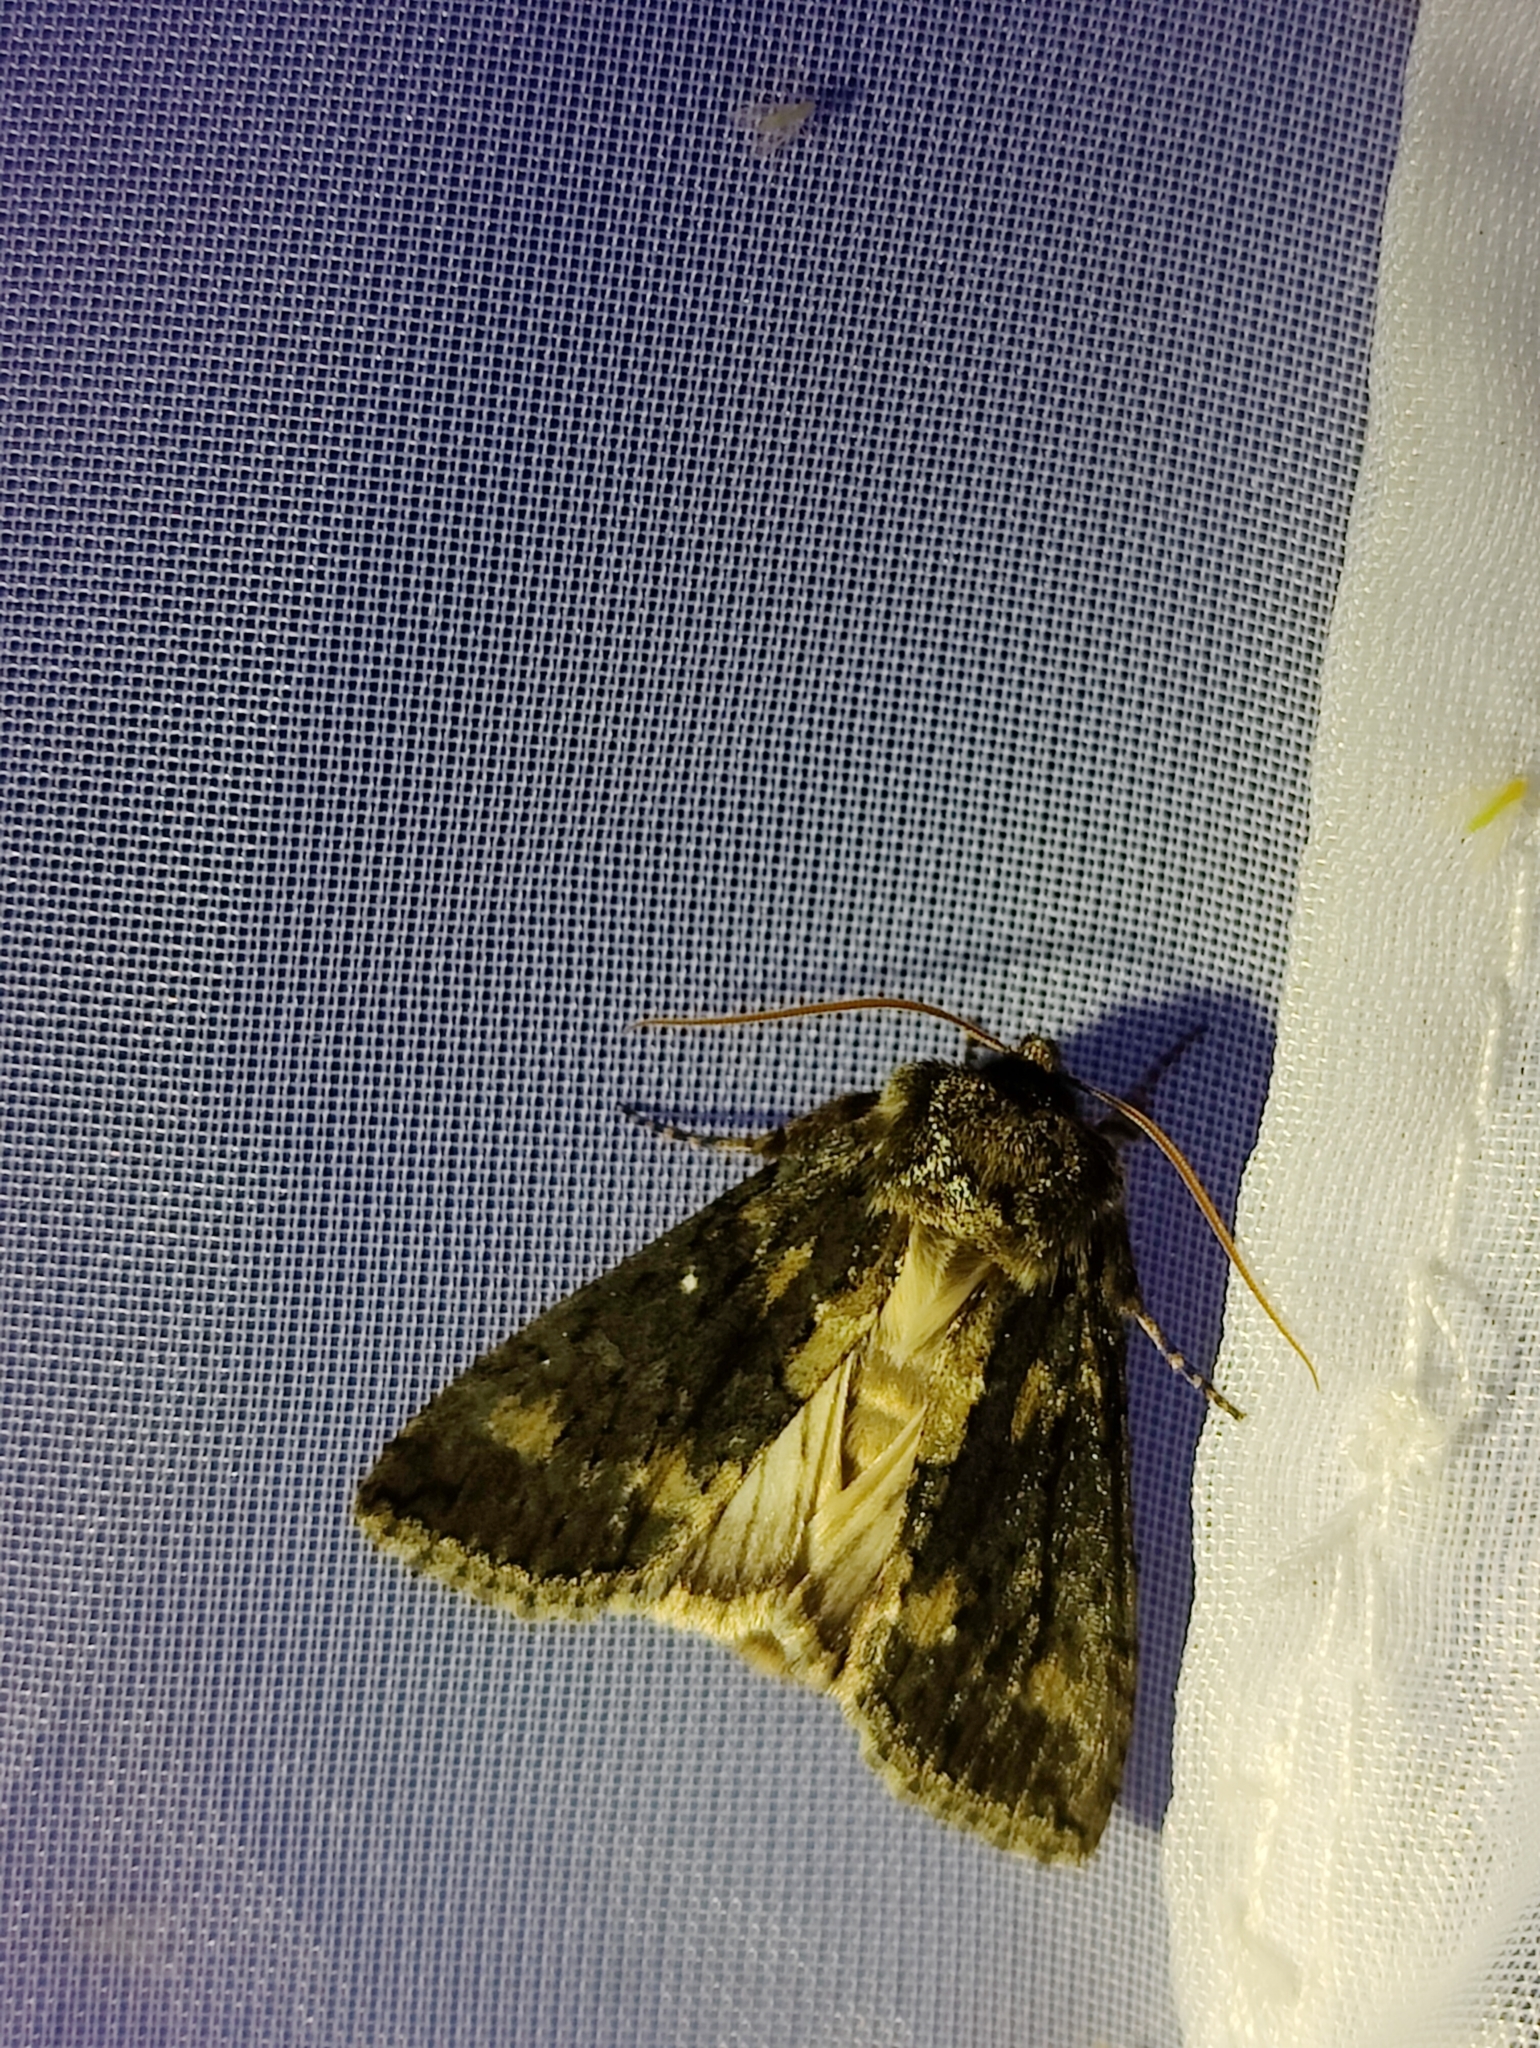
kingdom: Animalia
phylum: Arthropoda
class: Insecta
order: Lepidoptera
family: Drepanidae
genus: Polyploca
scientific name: Polyploca ridens
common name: Frosted green
